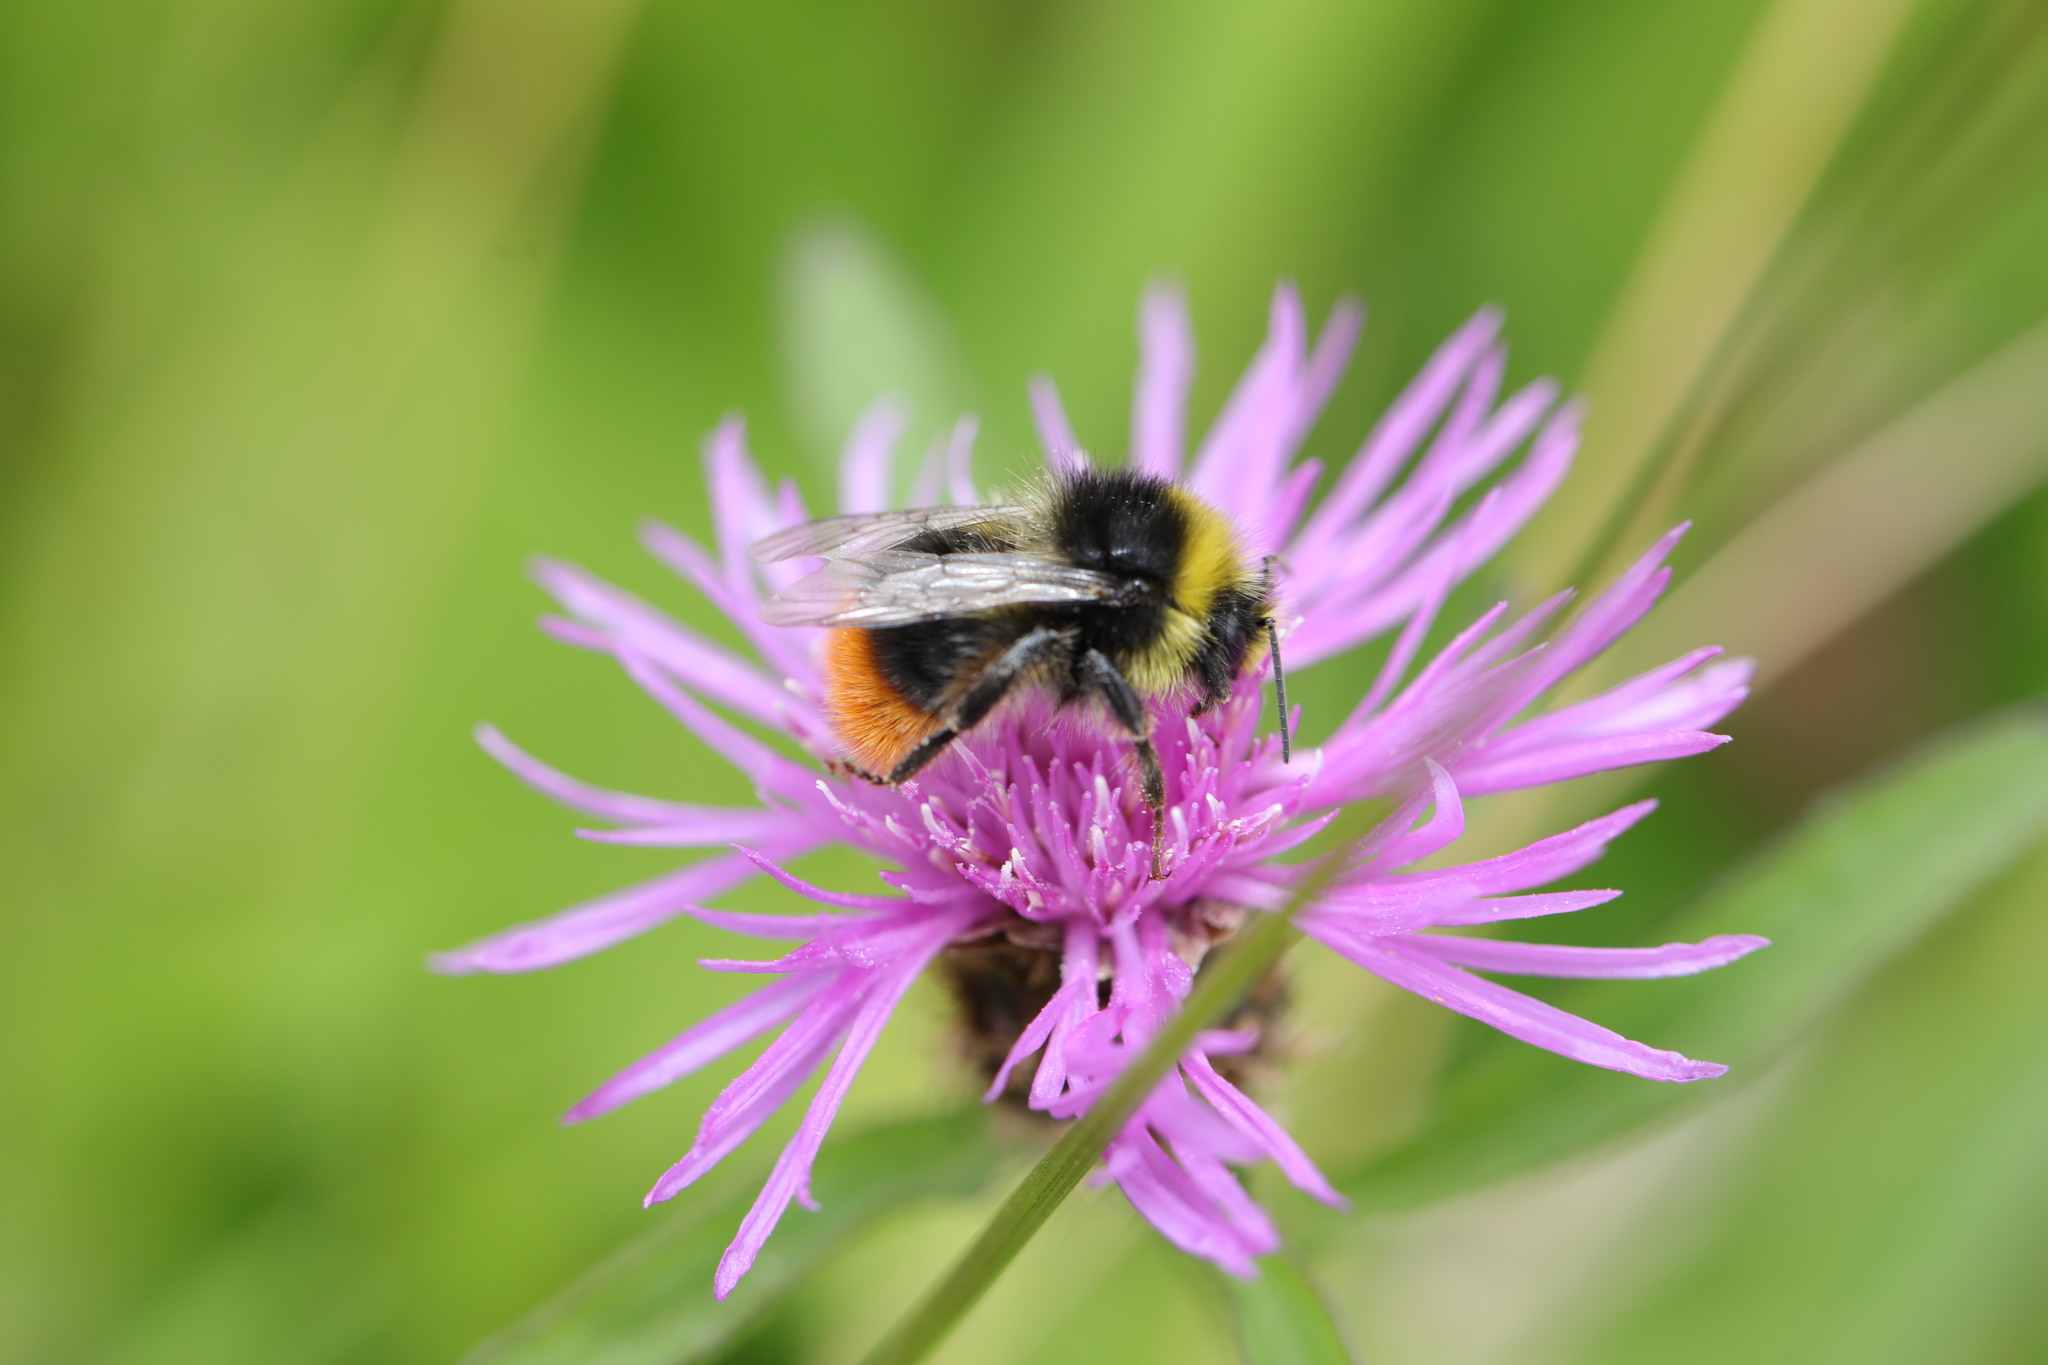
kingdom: Animalia
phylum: Arthropoda
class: Insecta
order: Hymenoptera
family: Apidae
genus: Bombus
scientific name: Bombus lapidarius
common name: Large red-tailed humble-bee
